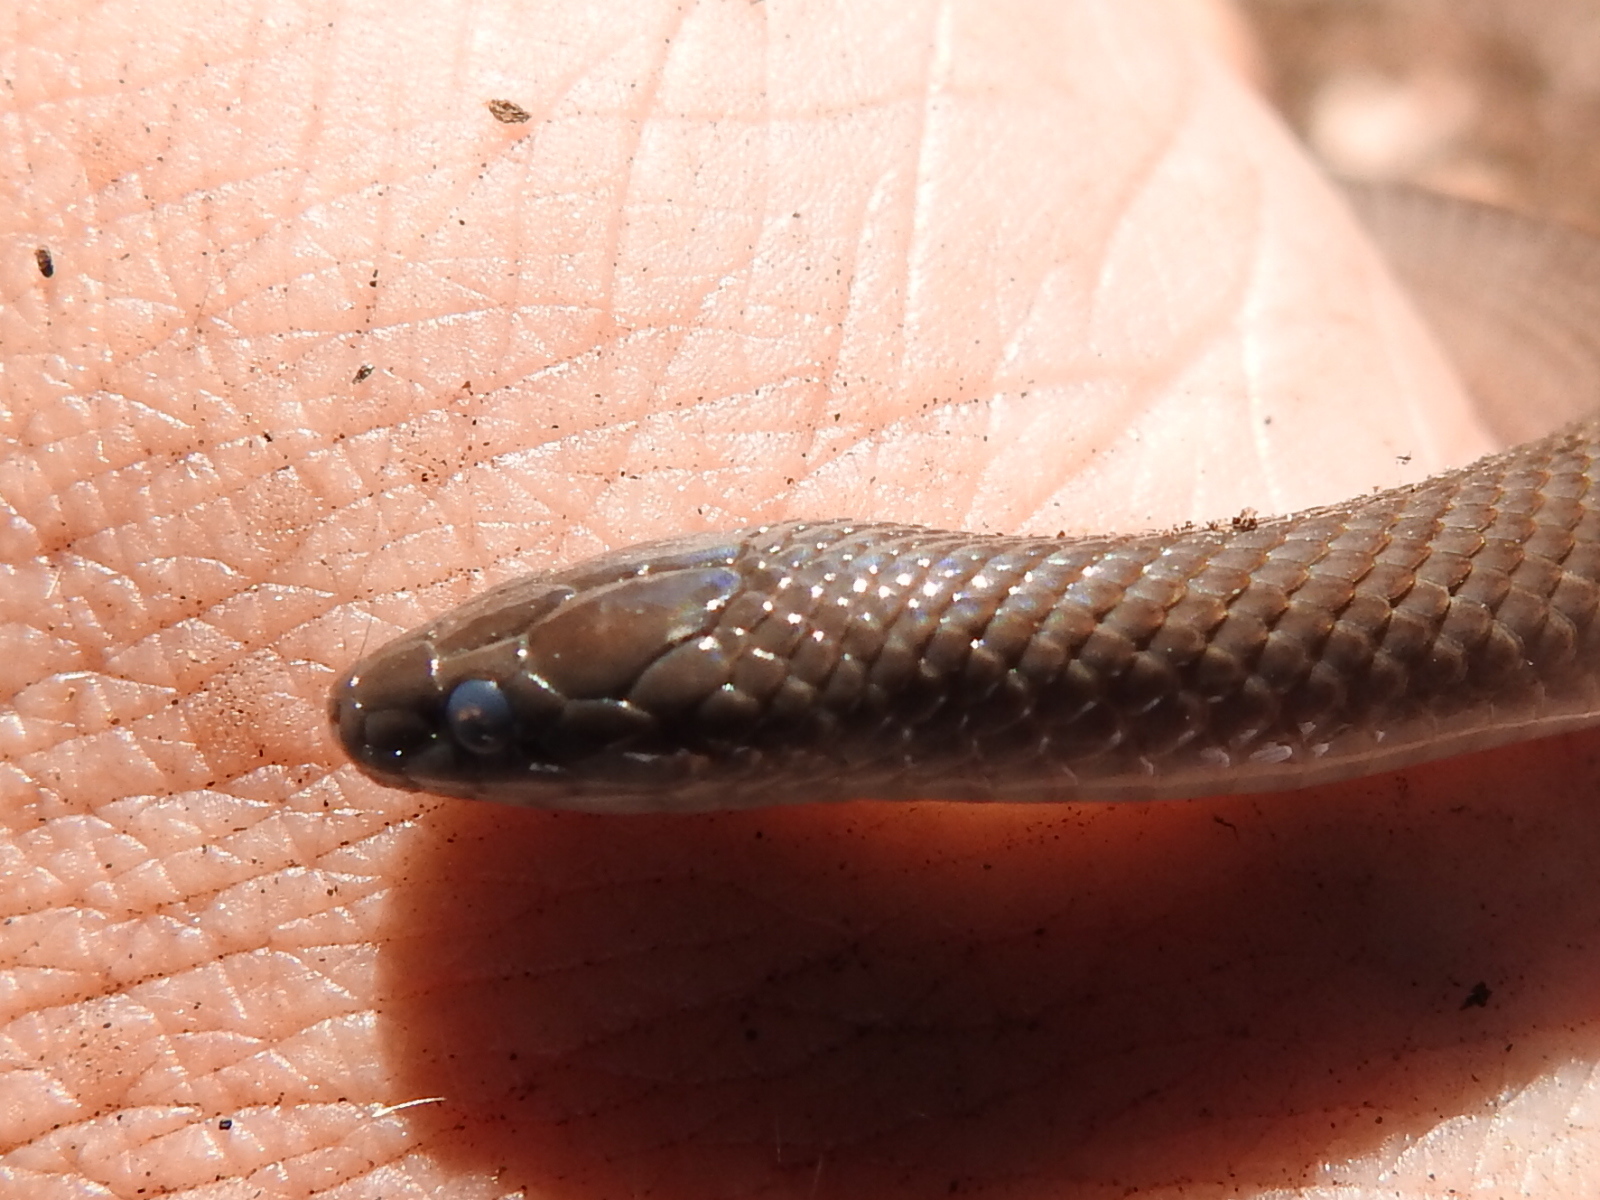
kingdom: Animalia
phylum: Chordata
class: Squamata
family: Colubridae
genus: Haldea
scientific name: Haldea striatula
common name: Rough earth snake
